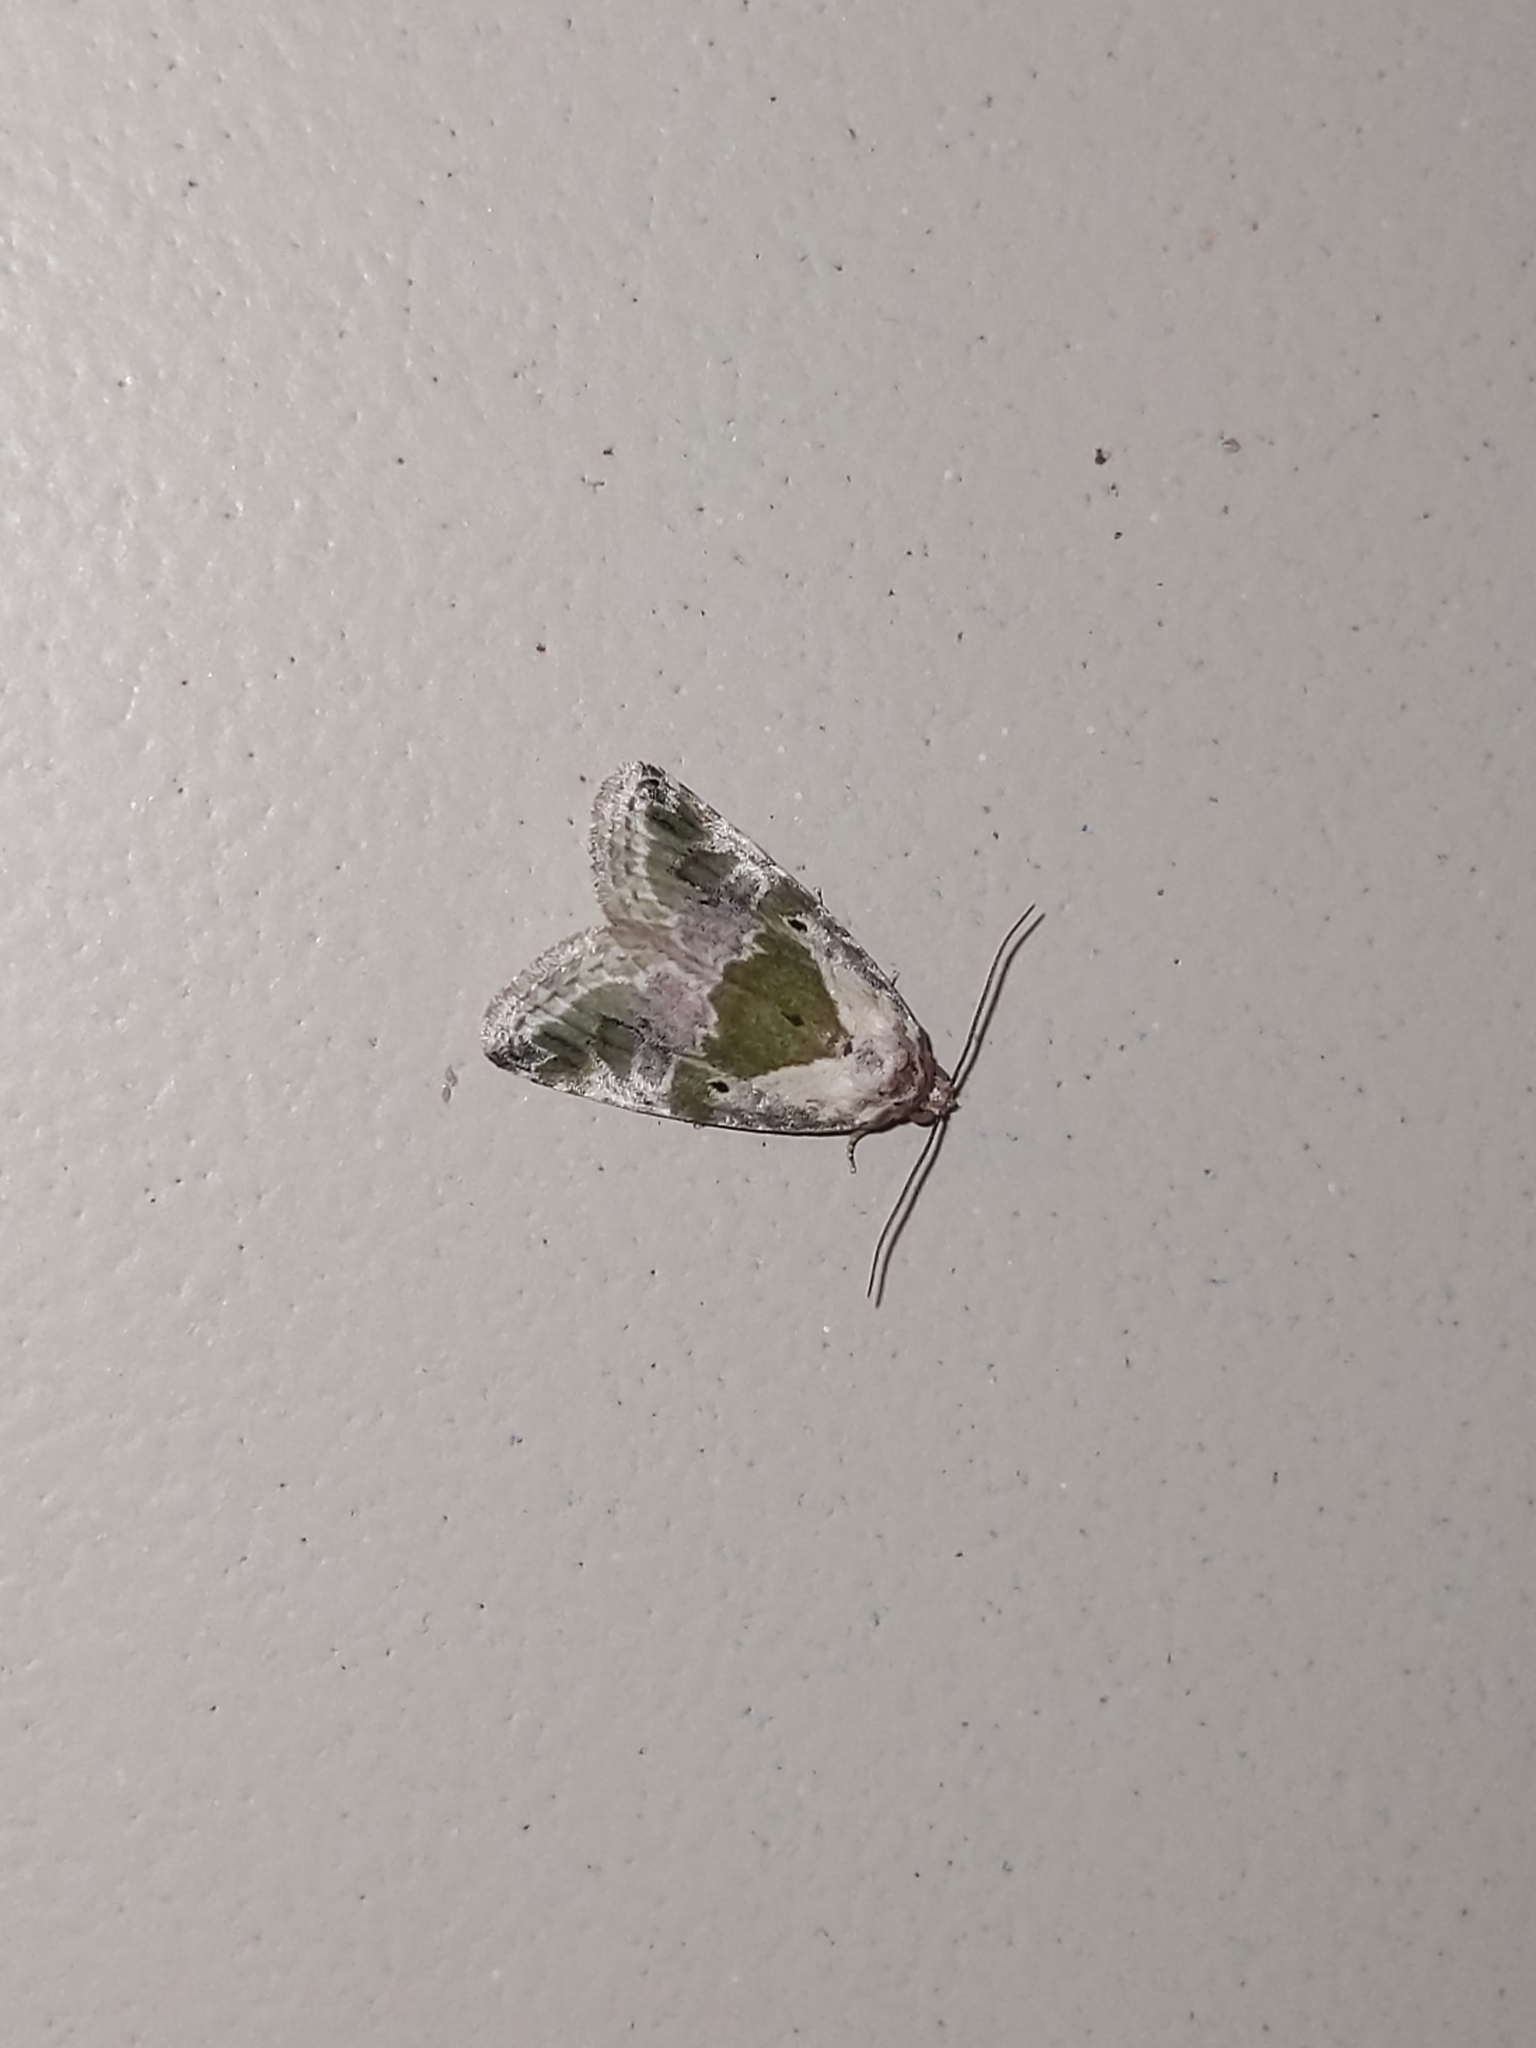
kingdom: Animalia
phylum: Arthropoda
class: Insecta
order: Lepidoptera
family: Noctuidae
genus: Maliattha
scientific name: Maliattha synochitis
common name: Black-dotted glyph
